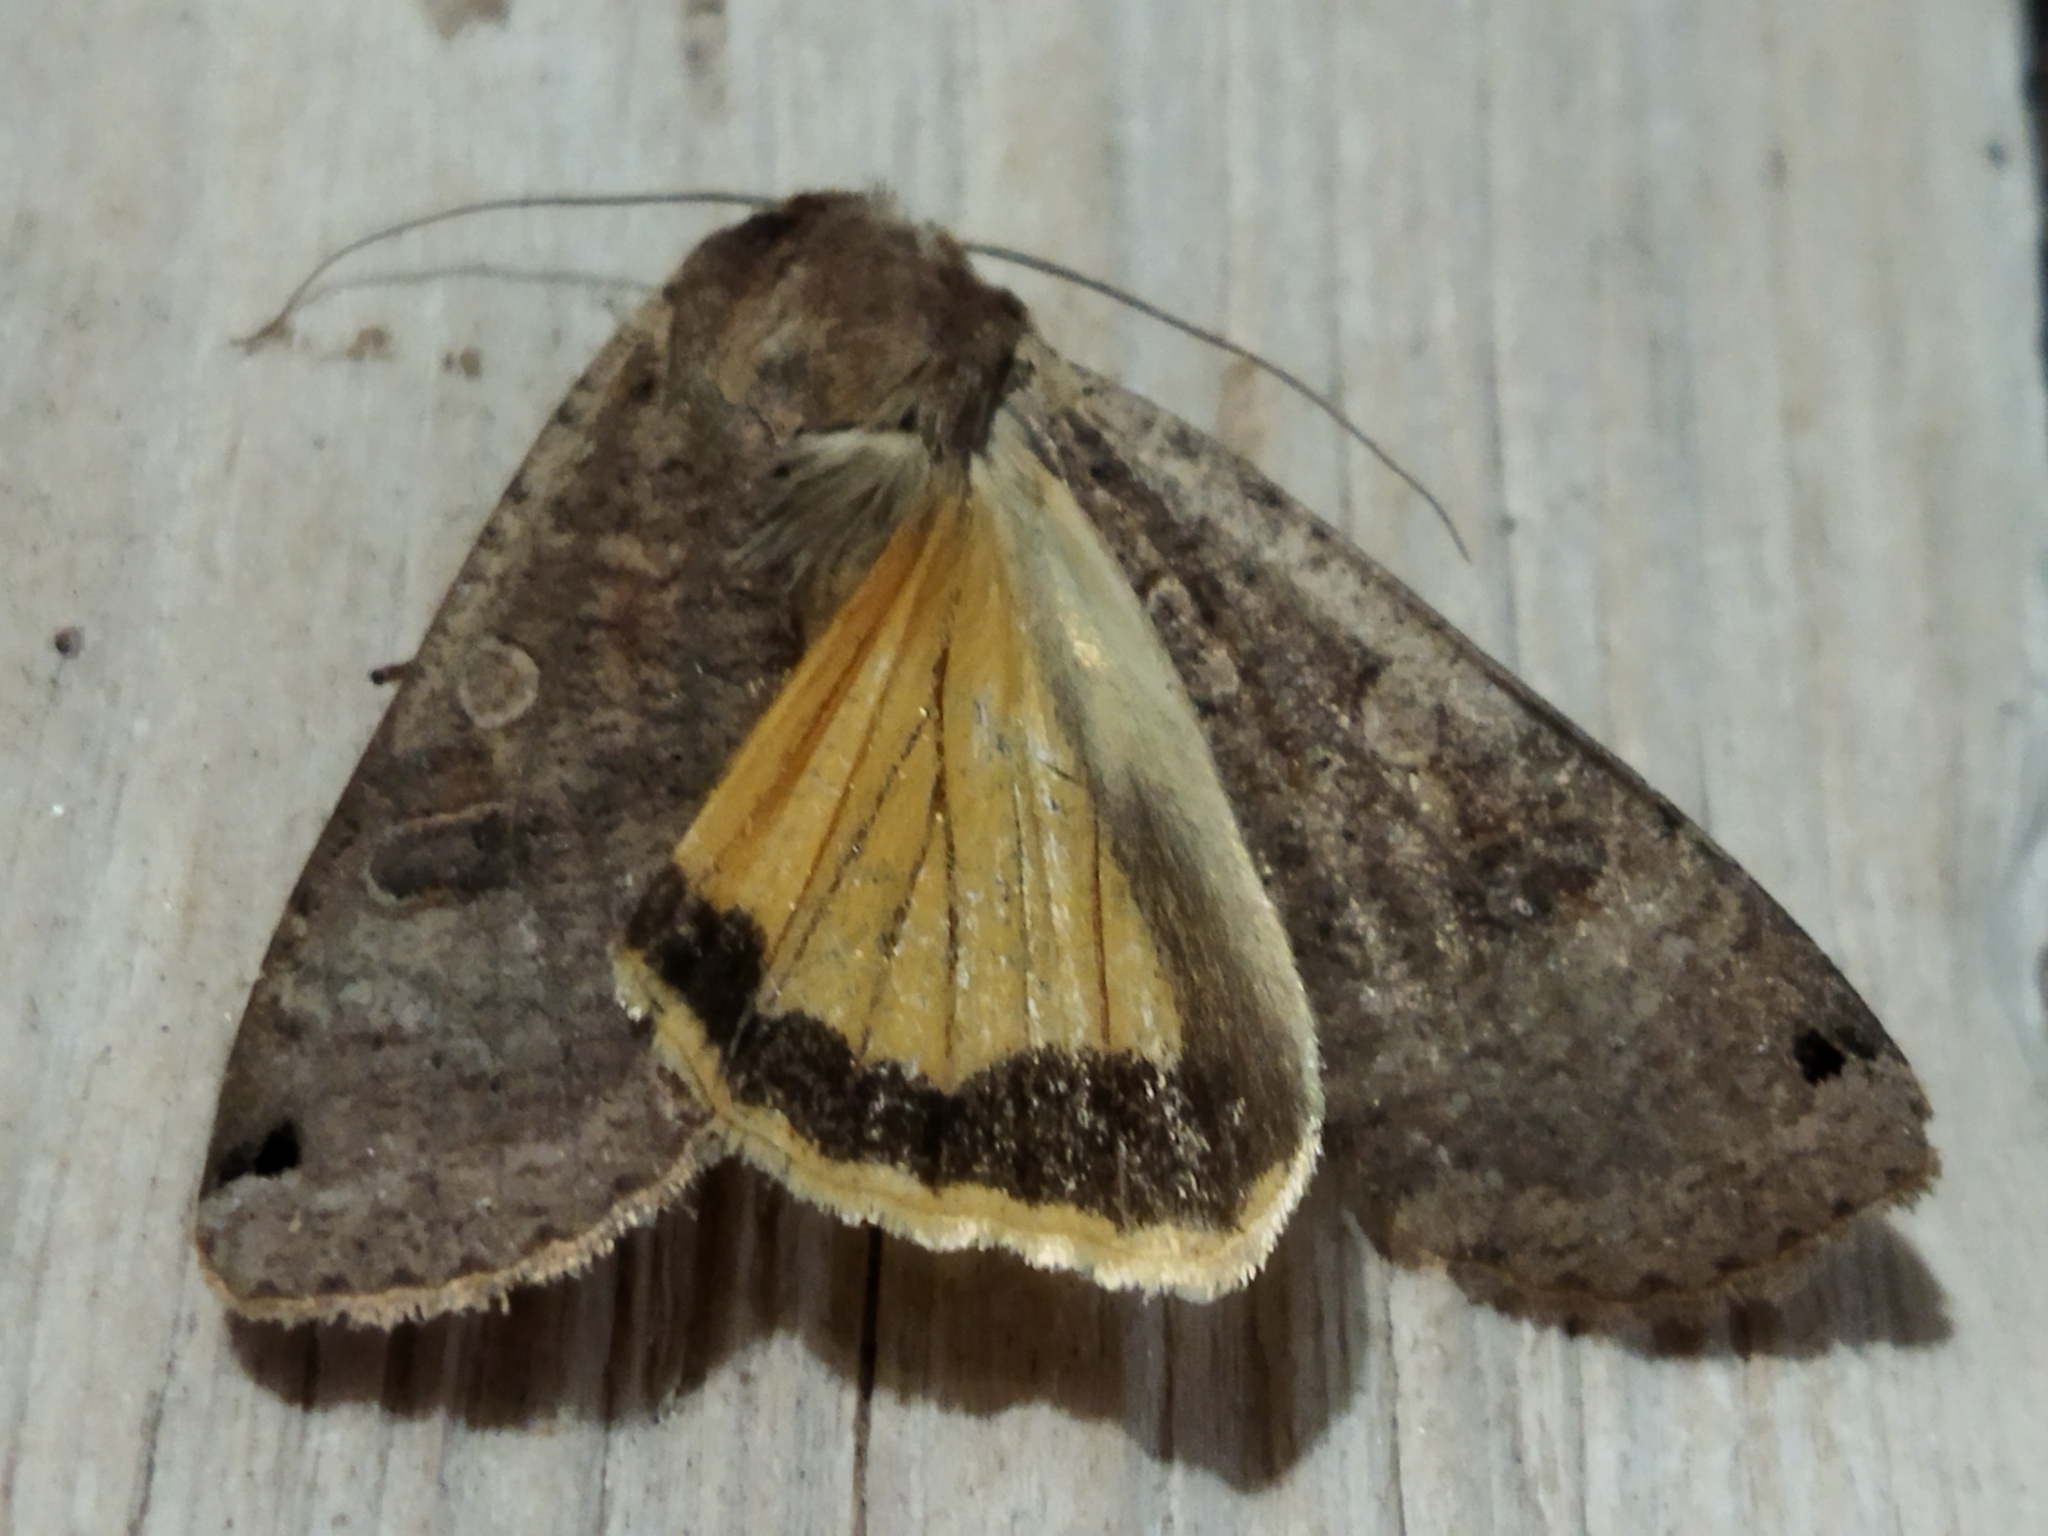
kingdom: Animalia
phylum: Arthropoda
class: Insecta
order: Lepidoptera
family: Noctuidae
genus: Noctua
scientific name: Noctua pronuba
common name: Large yellow underwing
